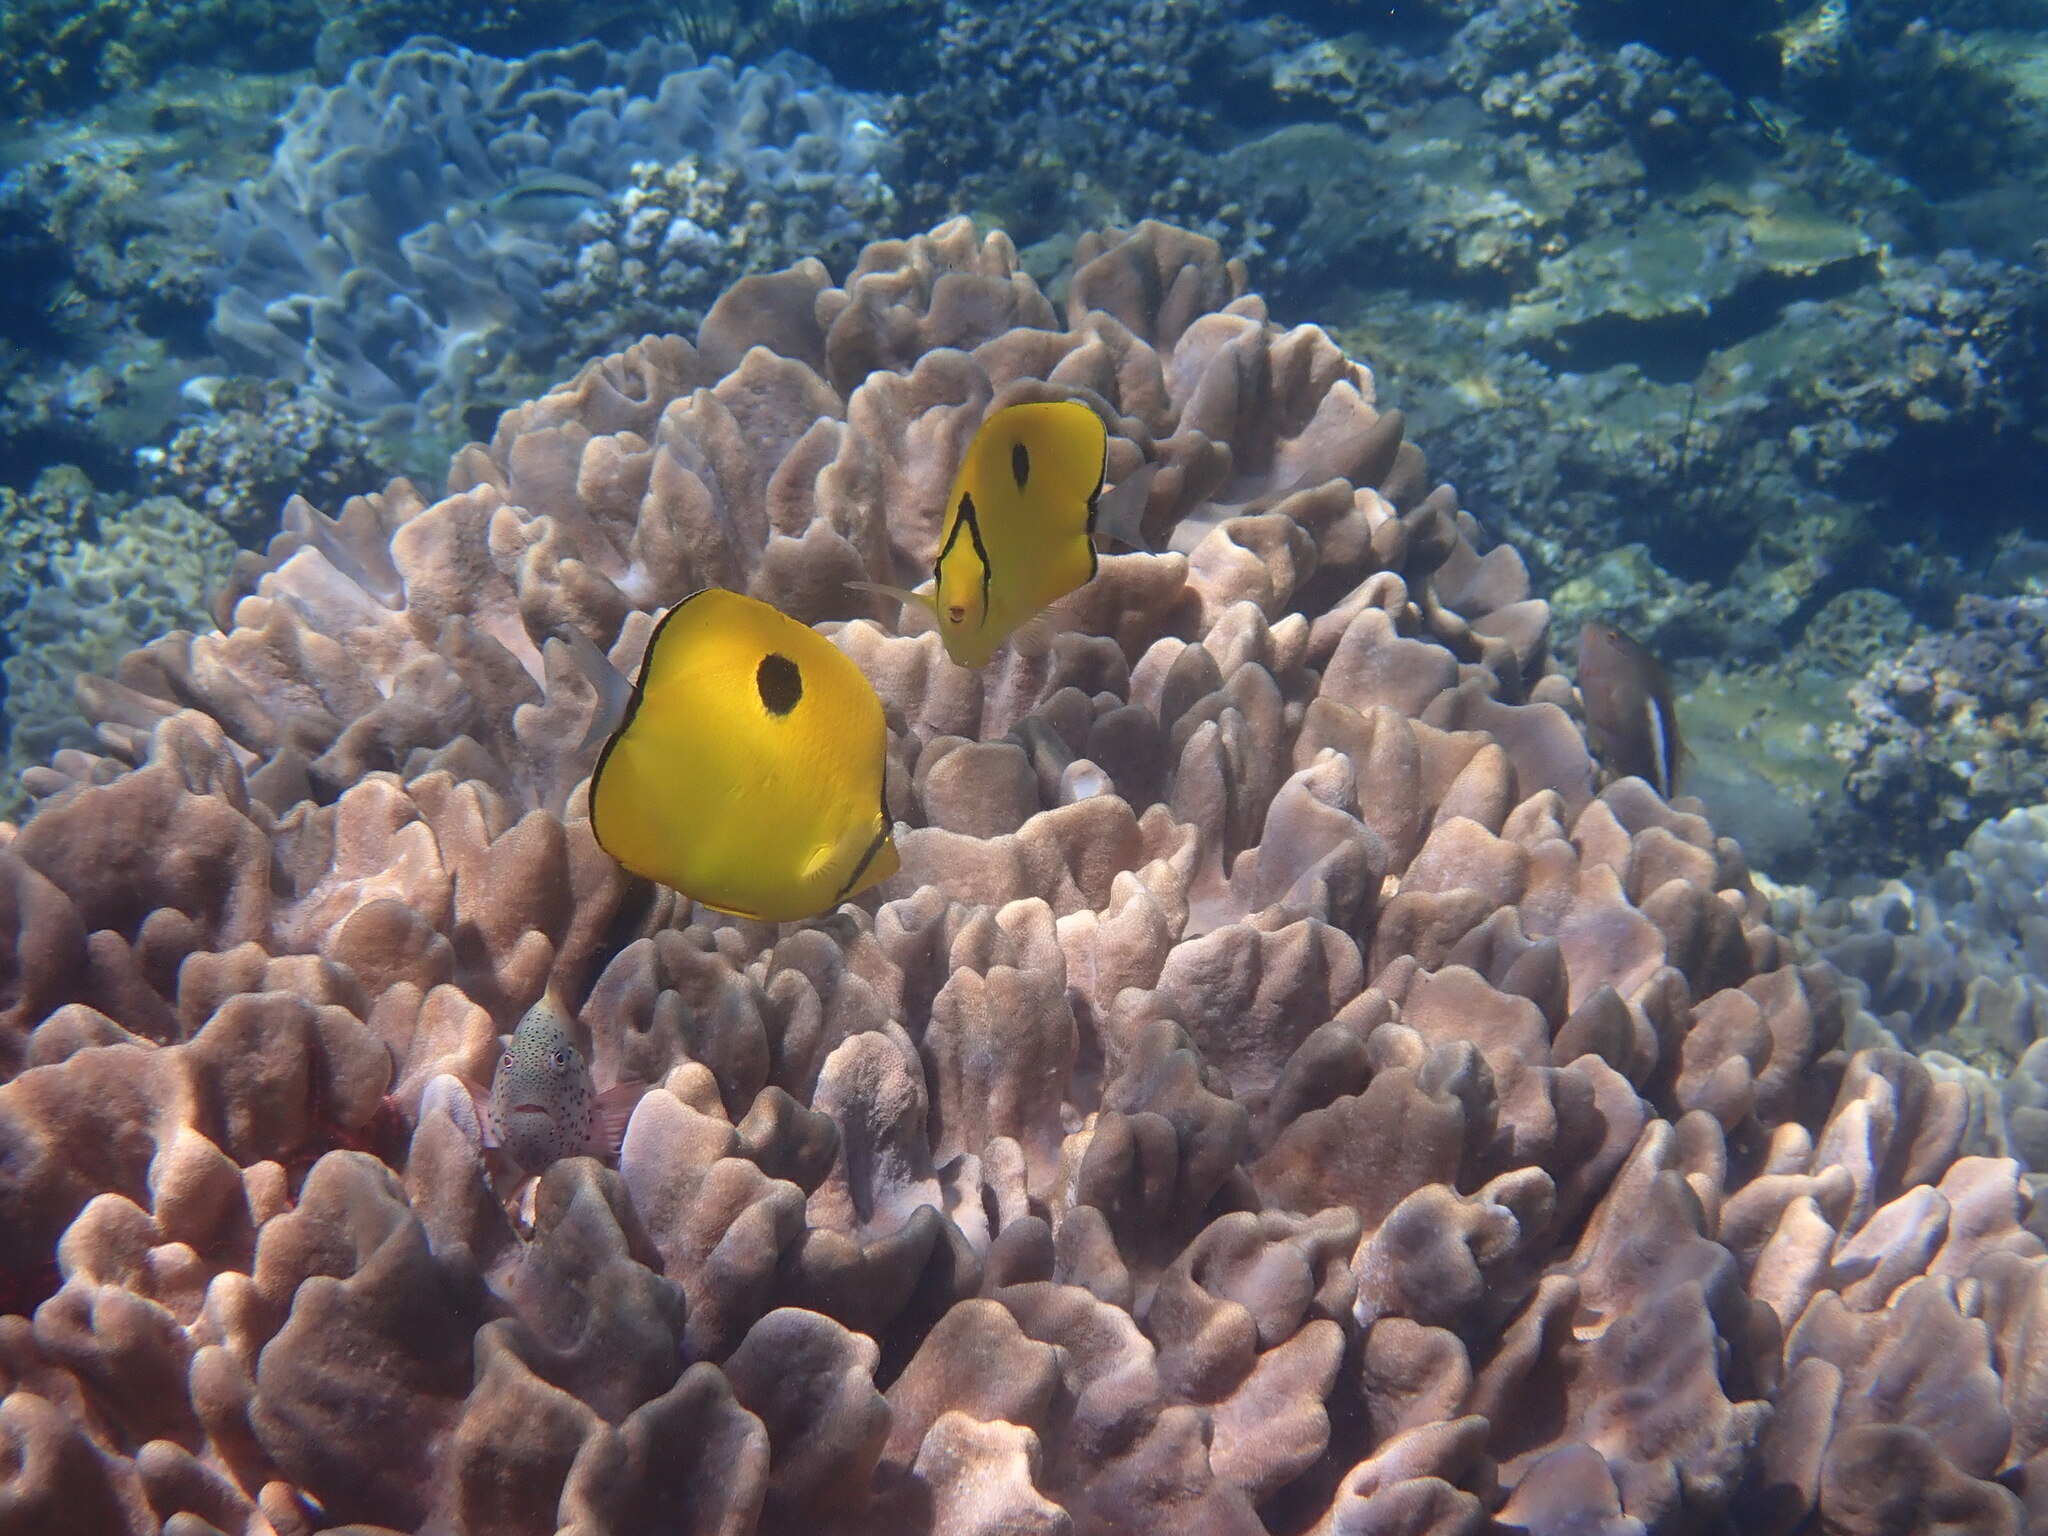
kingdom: Animalia
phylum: Chordata
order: Perciformes
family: Chaetodontidae
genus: Chaetodon
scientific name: Chaetodon interruptus
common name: Yellow teardrop butterflyfish
